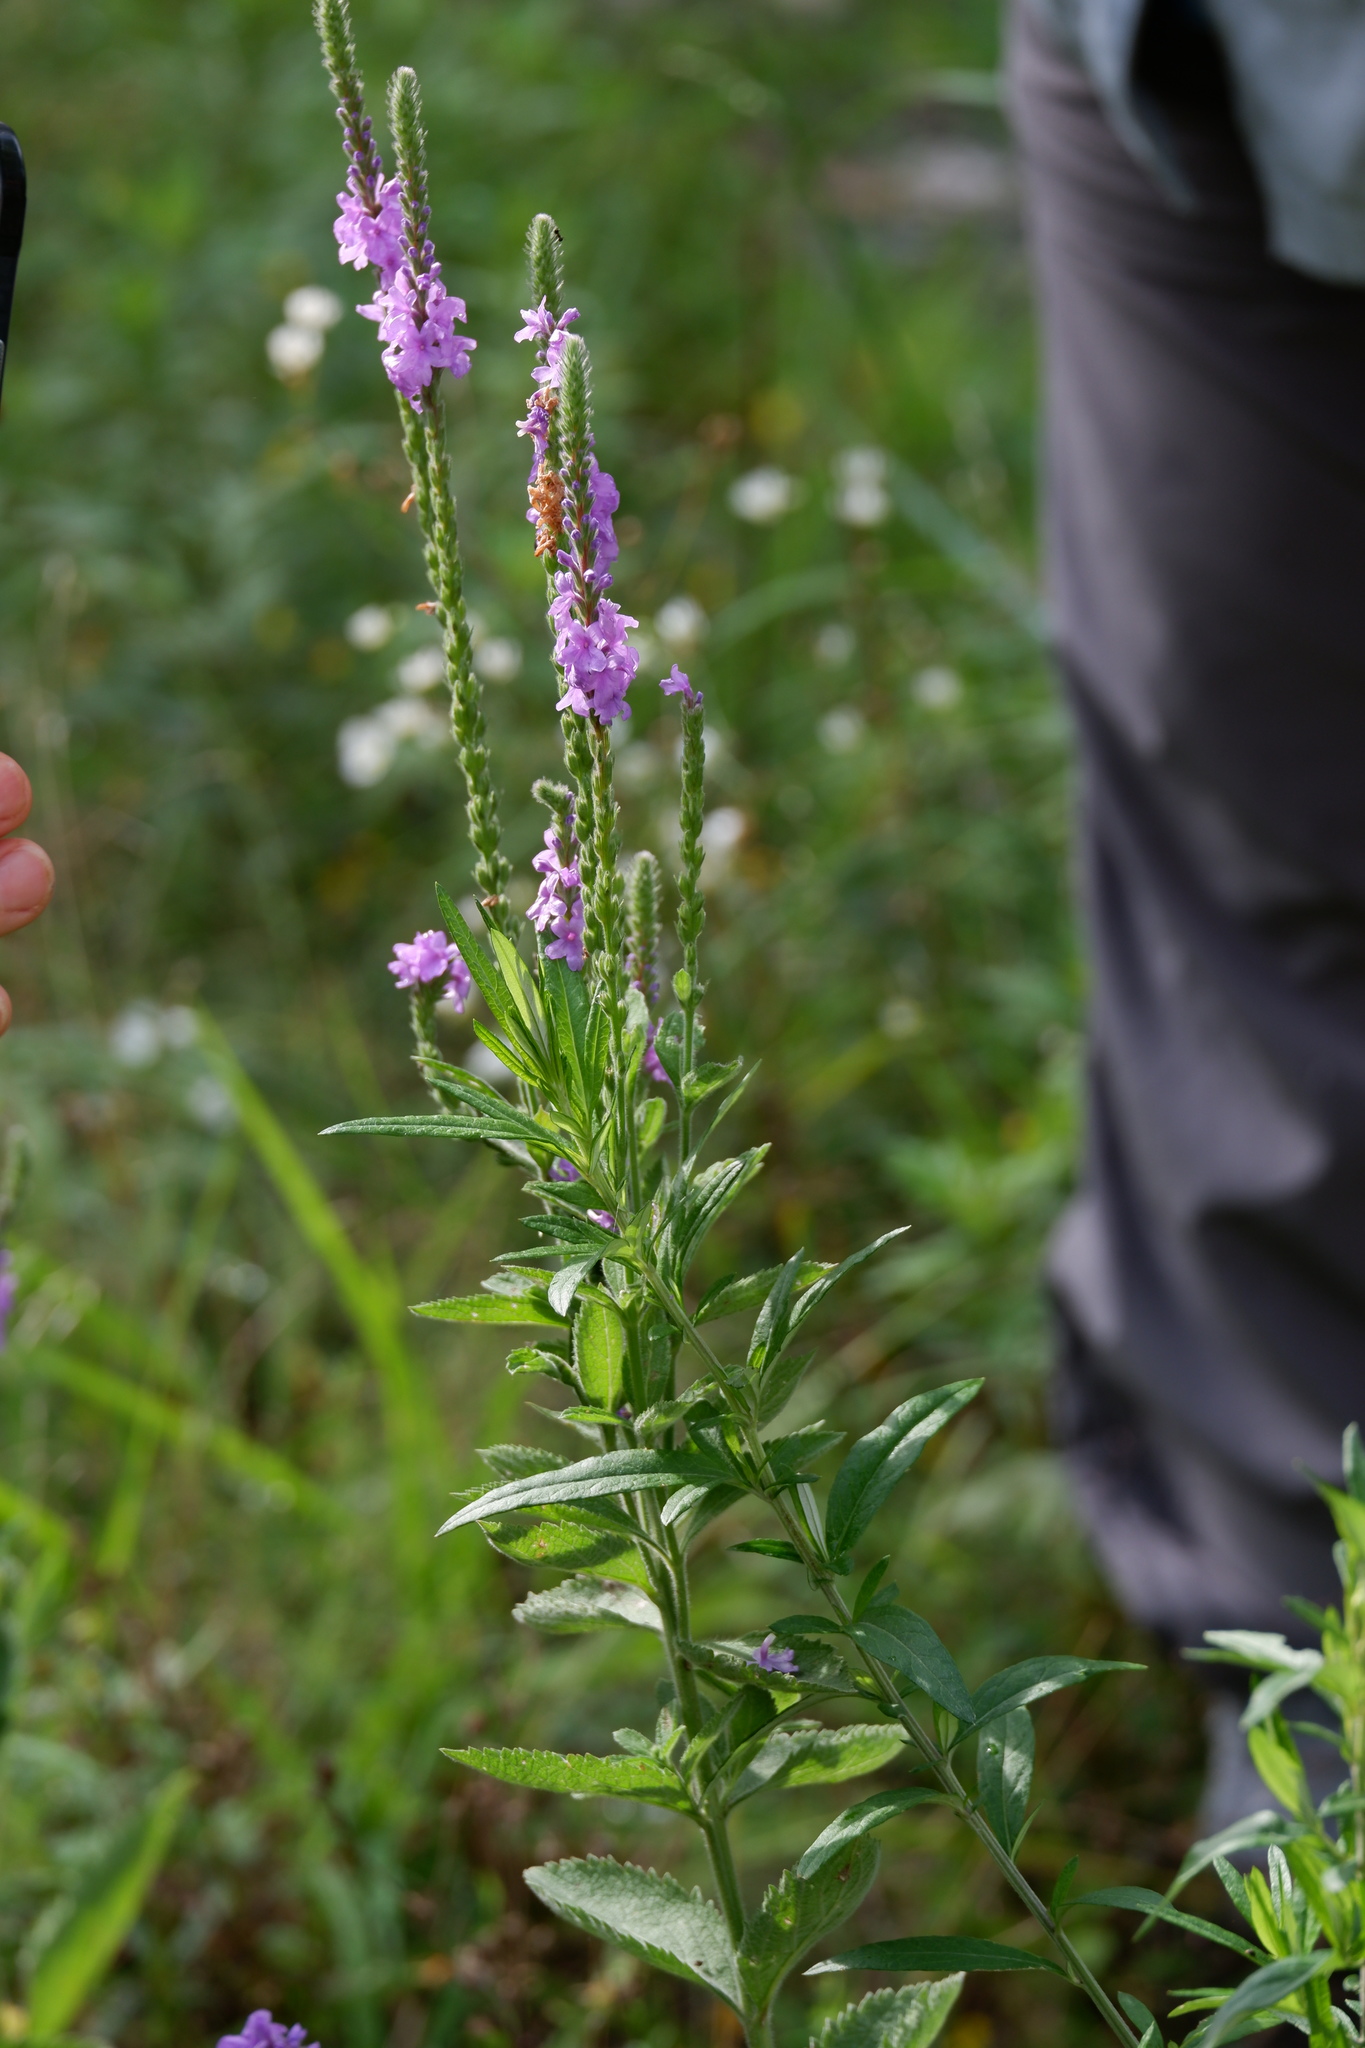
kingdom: Plantae
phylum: Tracheophyta
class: Magnoliopsida
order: Lamiales
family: Verbenaceae
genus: Verbena
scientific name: Verbena stricta
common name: Hoary vervain
